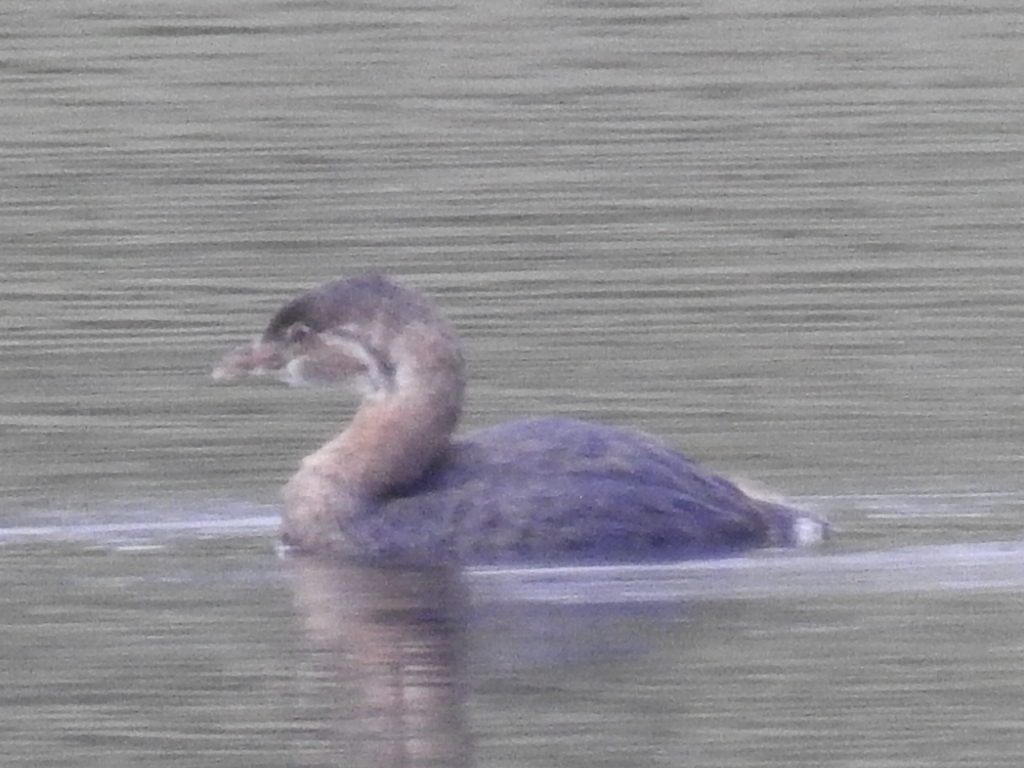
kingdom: Animalia
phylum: Chordata
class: Aves
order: Podicipediformes
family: Podicipedidae
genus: Podilymbus
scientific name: Podilymbus podiceps
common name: Pied-billed grebe
